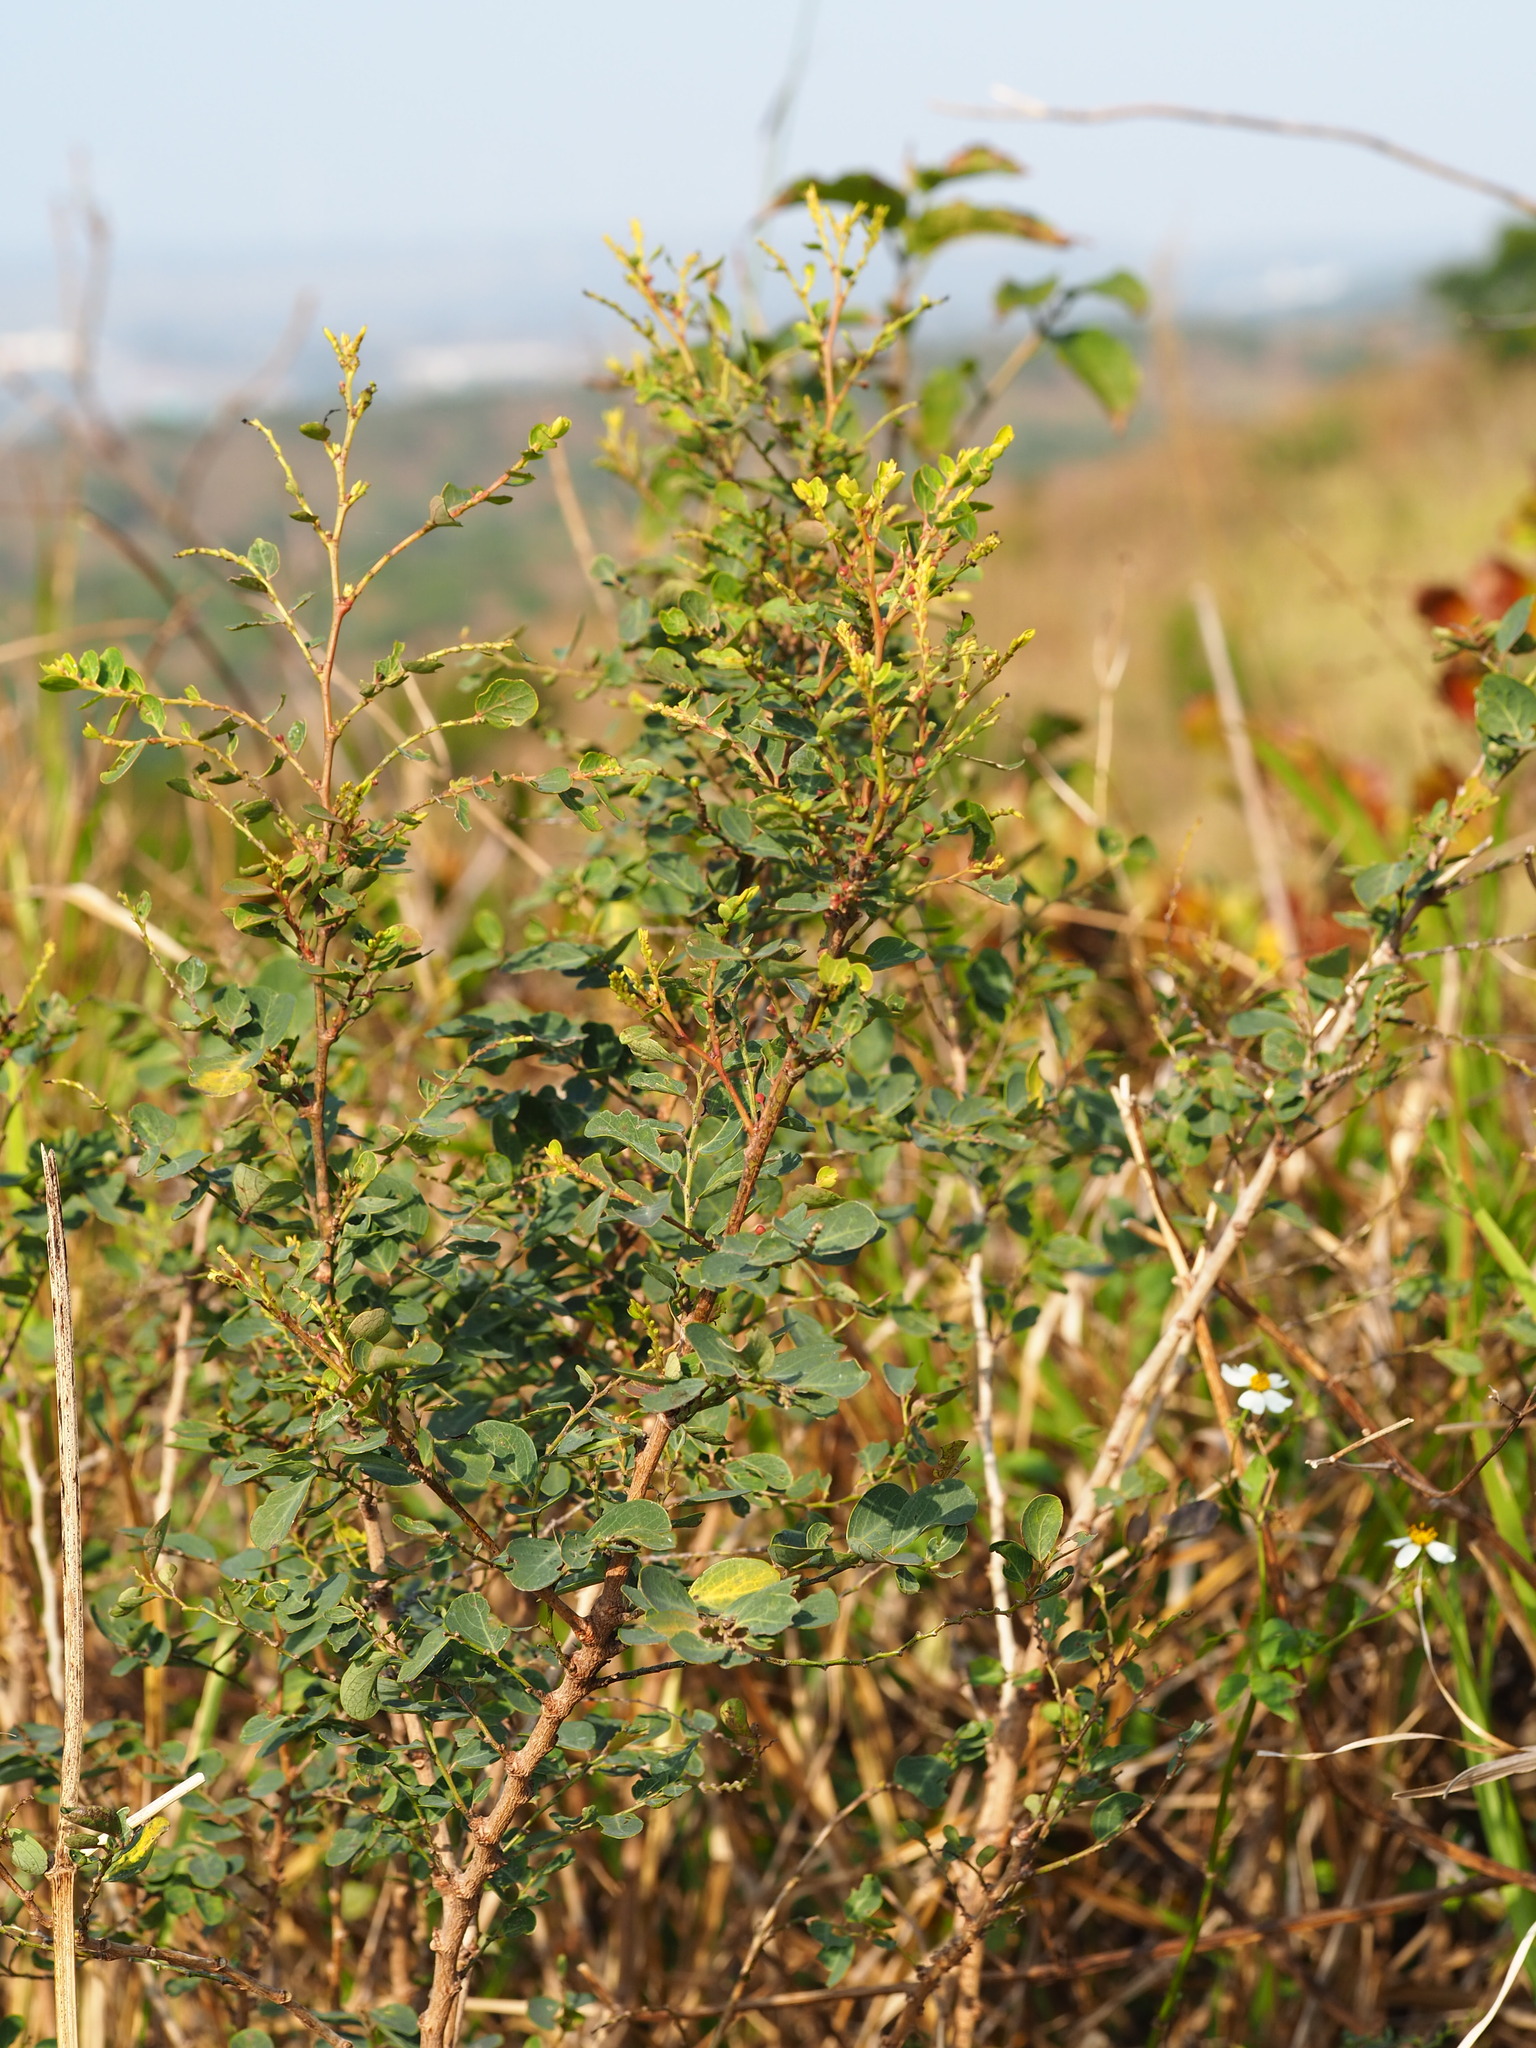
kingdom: Plantae
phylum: Tracheophyta
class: Magnoliopsida
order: Malpighiales
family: Phyllanthaceae
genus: Breynia
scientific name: Breynia vitis-idaea
